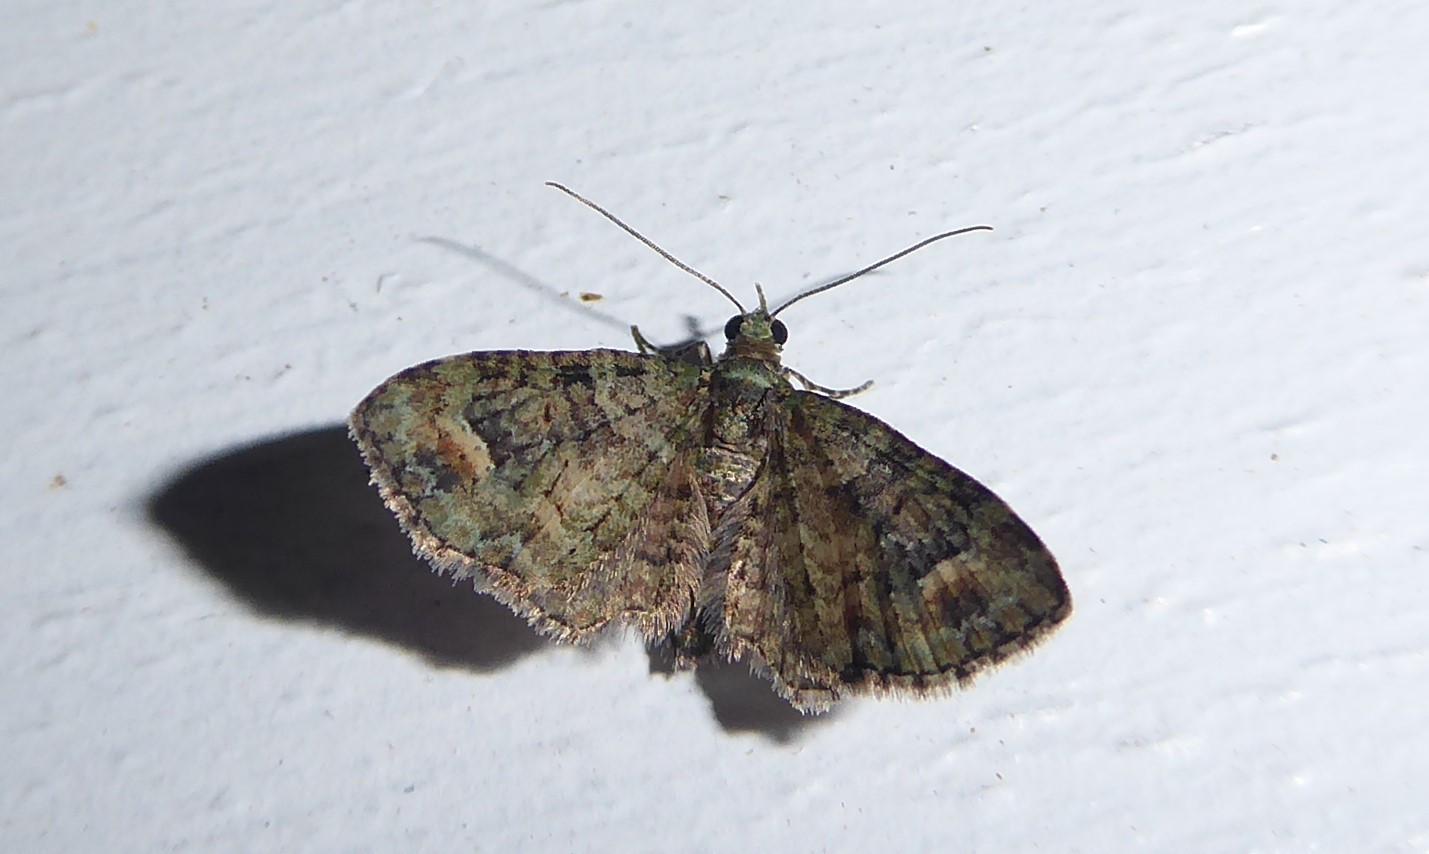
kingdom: Animalia
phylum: Arthropoda
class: Insecta
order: Lepidoptera
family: Geometridae
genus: Idaea
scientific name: Idaea mutanda
